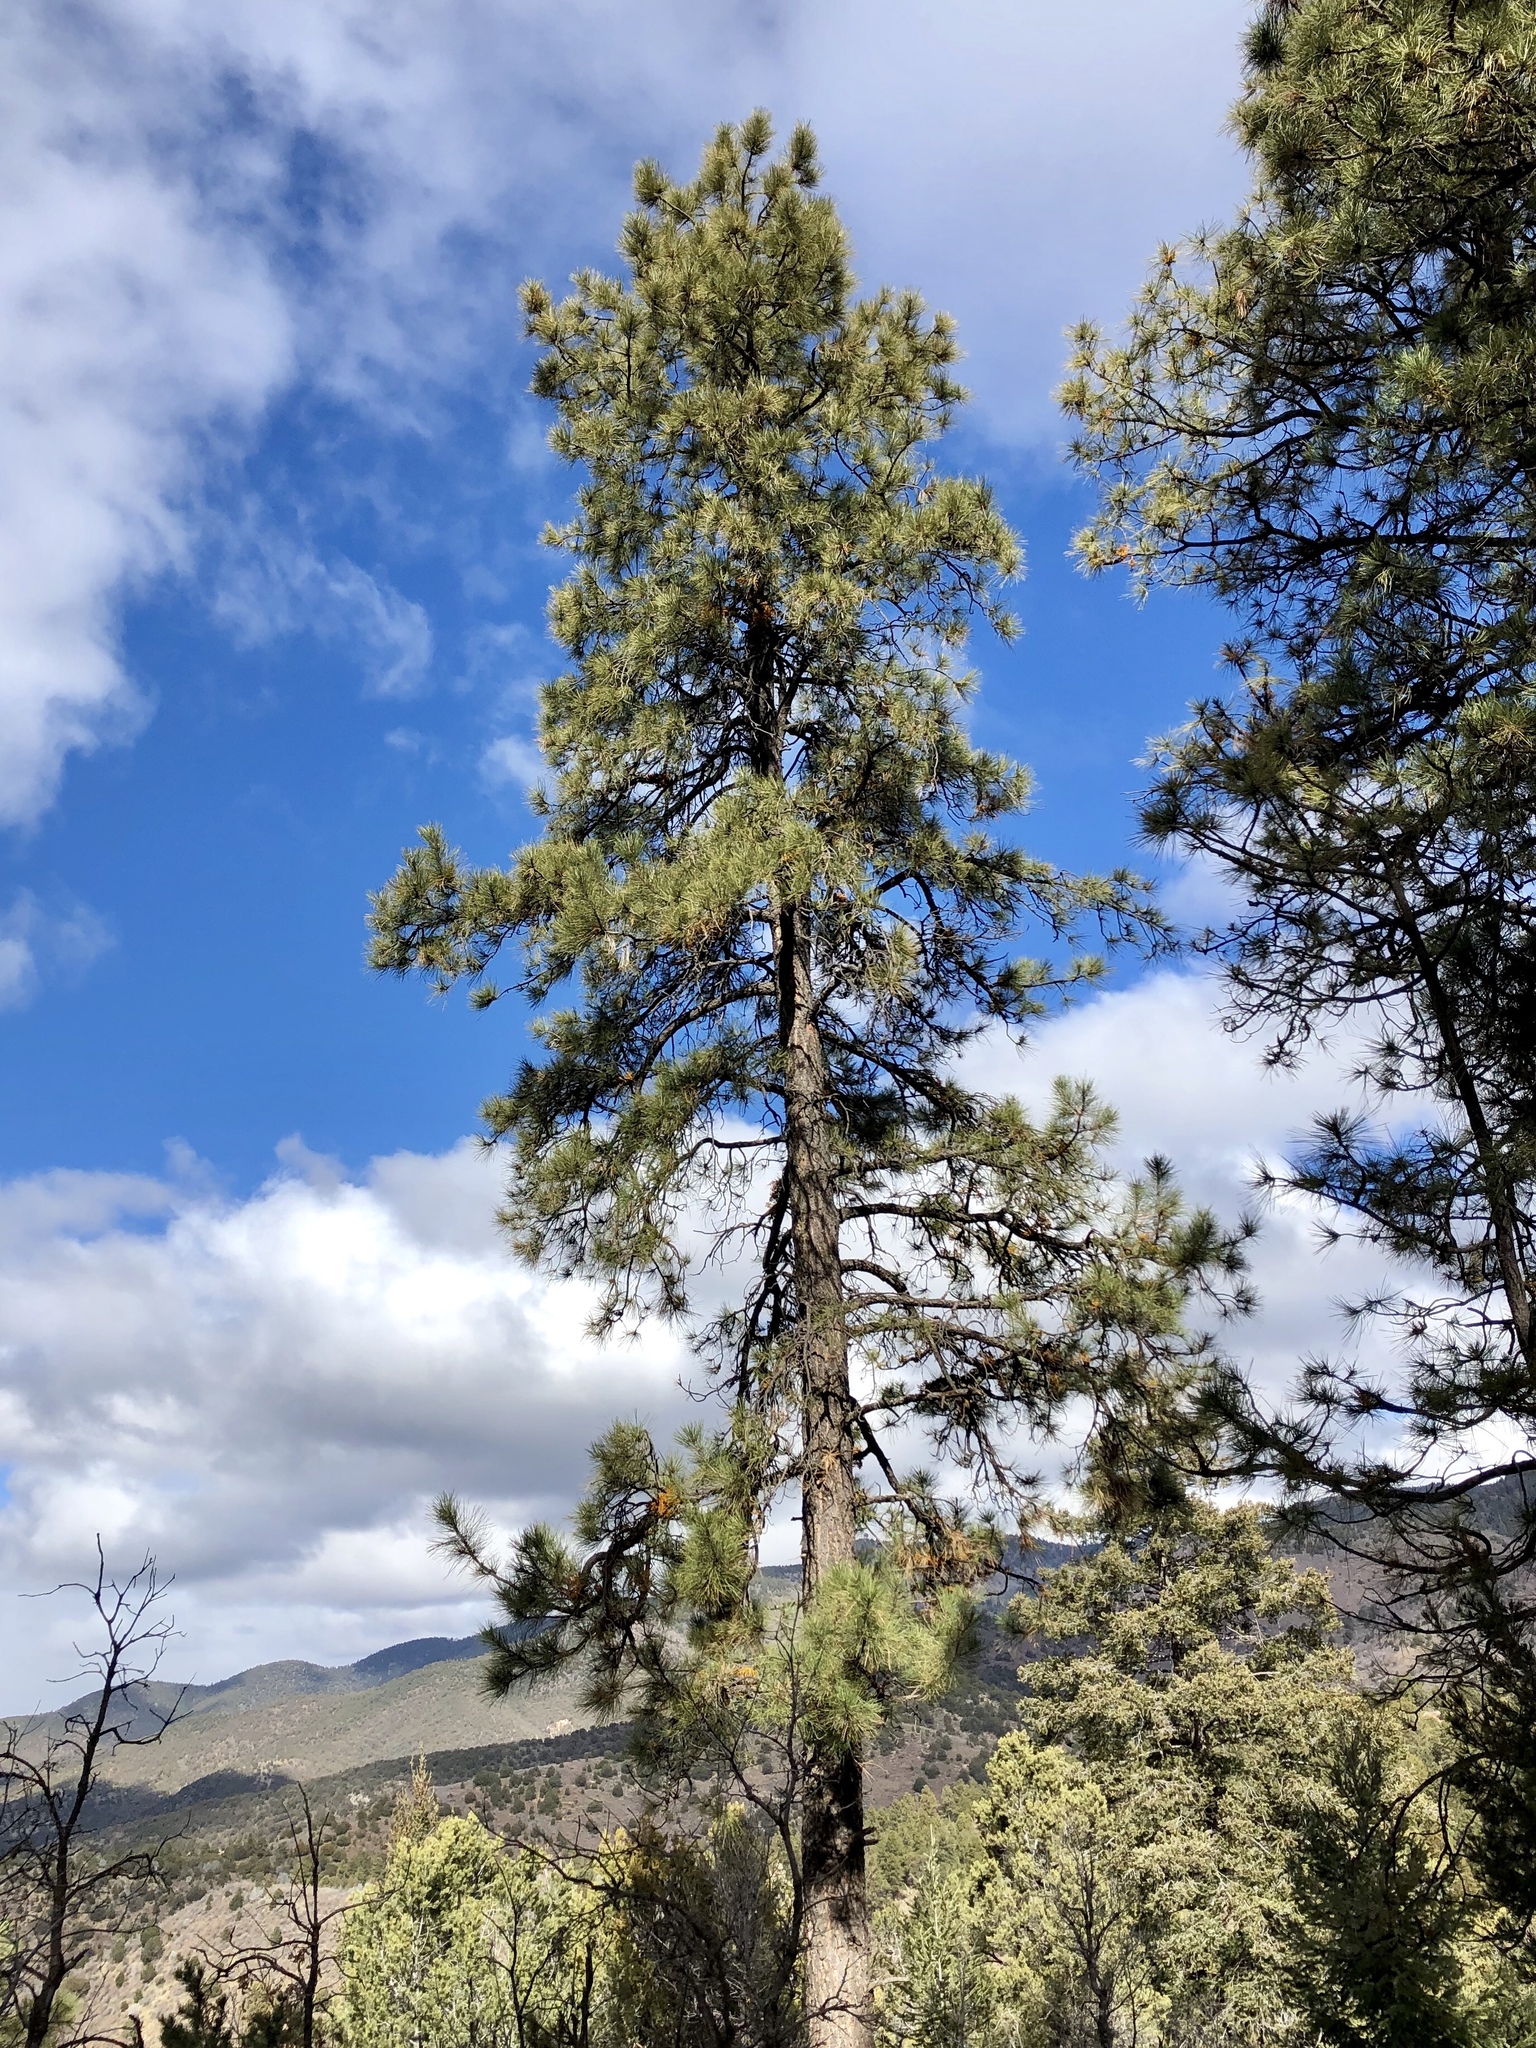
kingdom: Plantae
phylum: Tracheophyta
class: Pinopsida
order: Pinales
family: Pinaceae
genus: Pinus
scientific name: Pinus ponderosa
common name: Western yellow-pine
